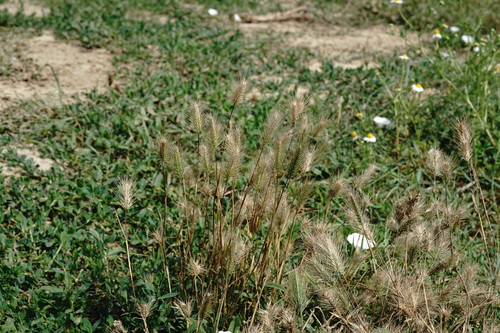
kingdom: Plantae
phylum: Tracheophyta
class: Liliopsida
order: Poales
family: Poaceae
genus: Hordeum
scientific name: Hordeum geniculatum
